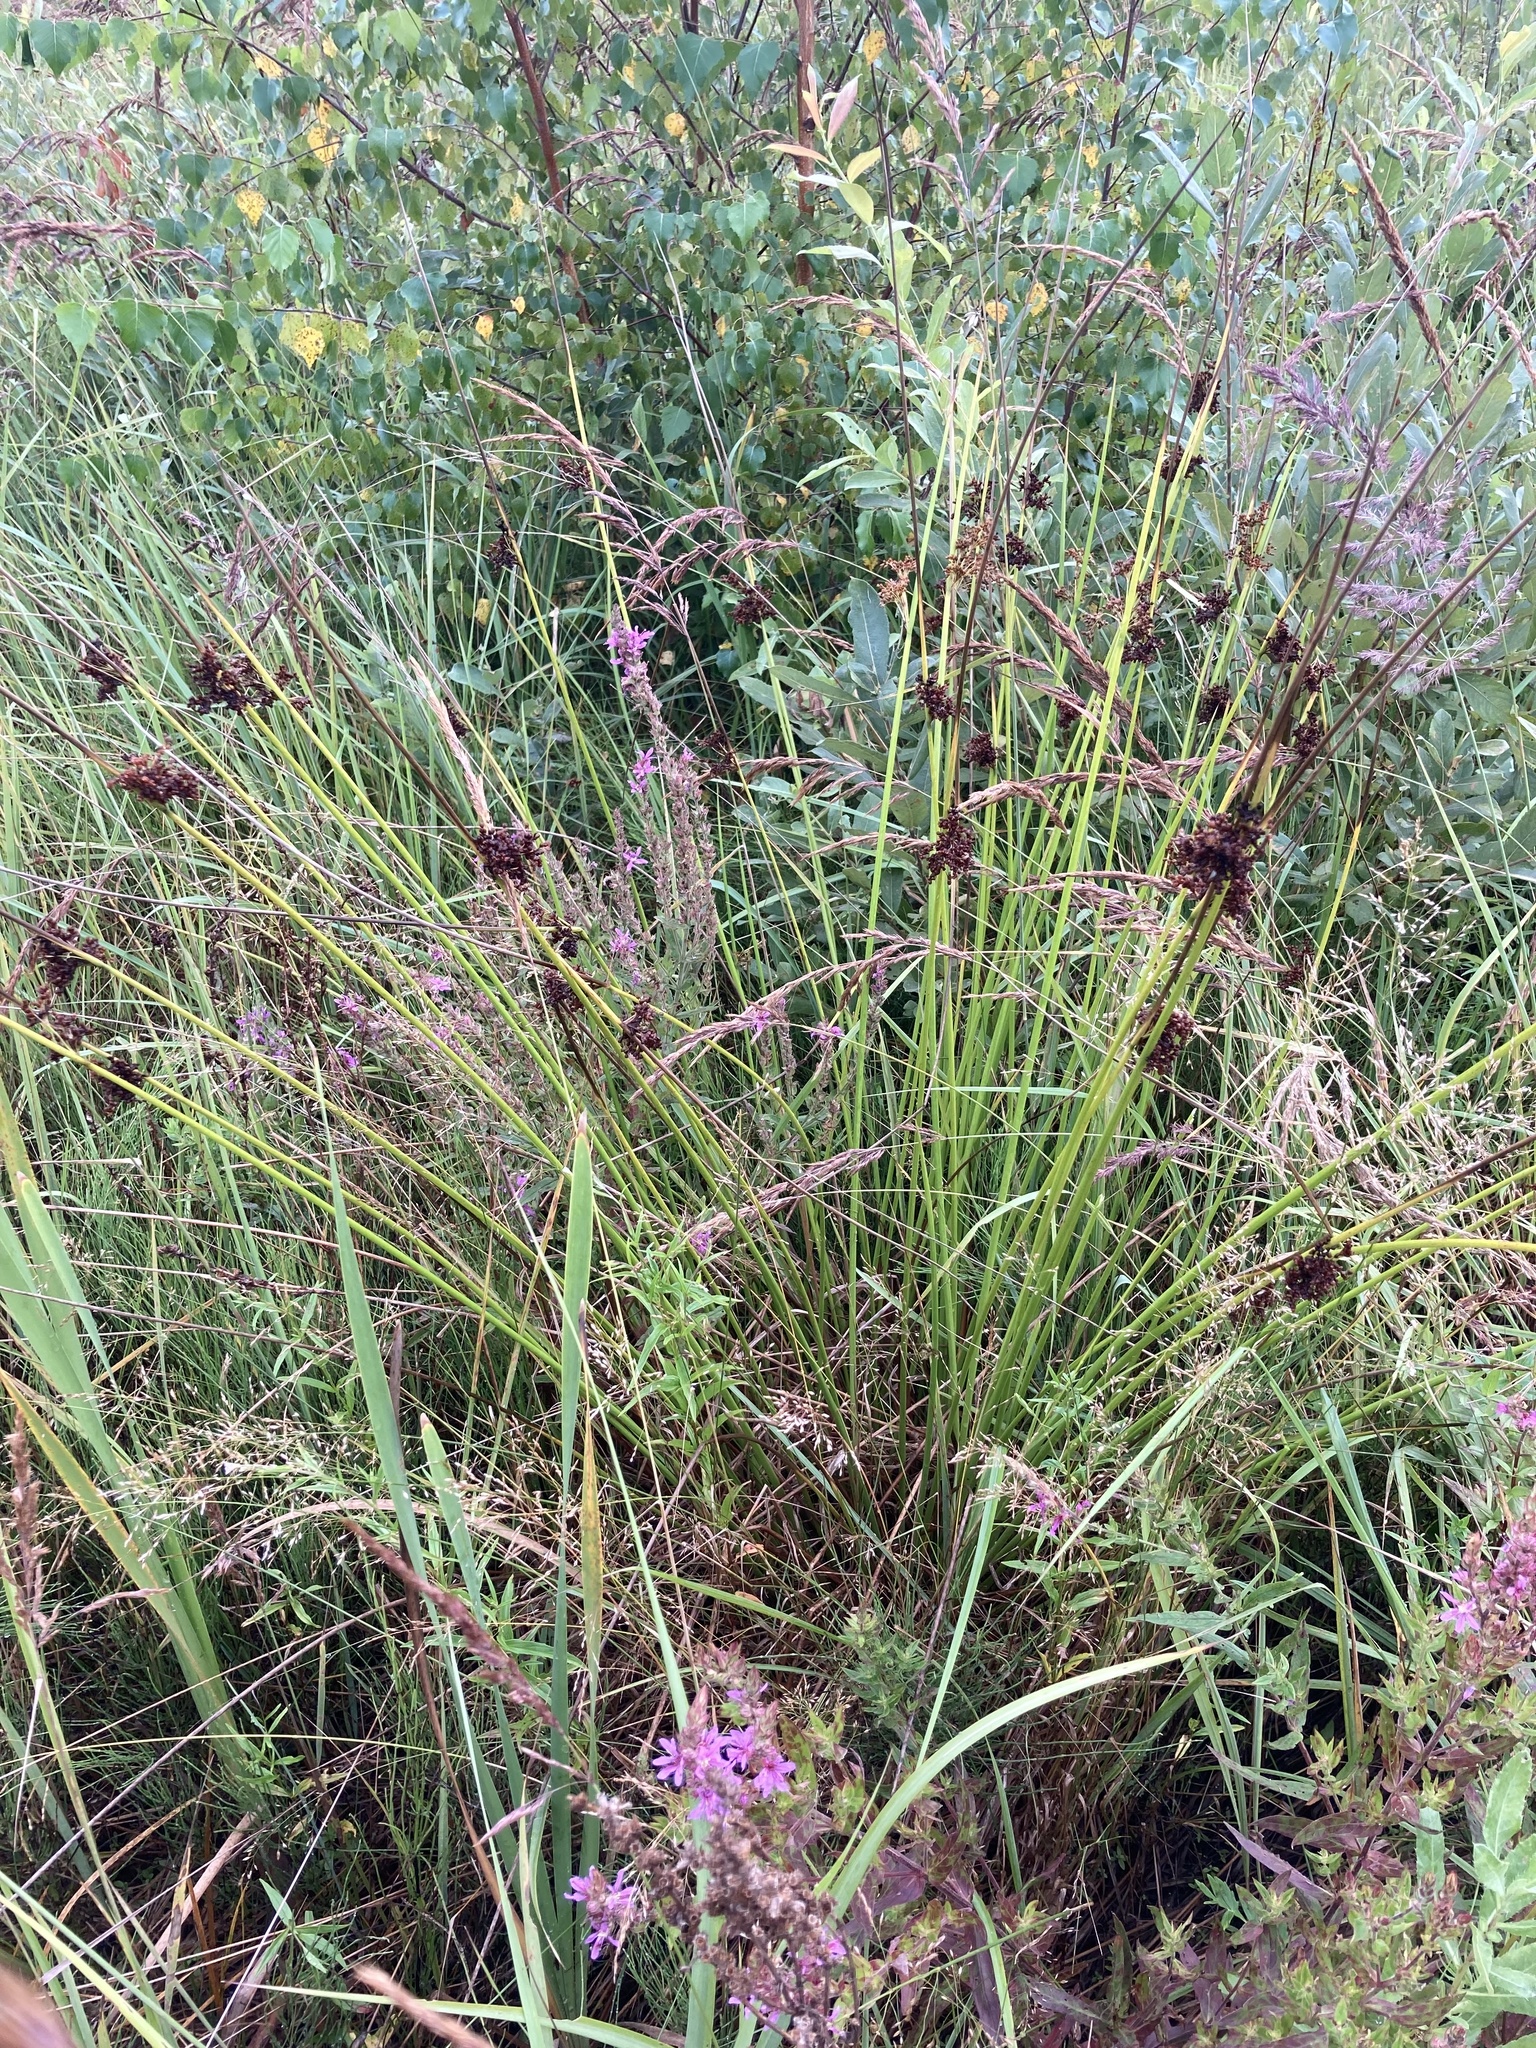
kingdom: Plantae
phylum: Tracheophyta
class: Liliopsida
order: Poales
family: Juncaceae
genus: Juncus
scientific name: Juncus effusus
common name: Soft rush
